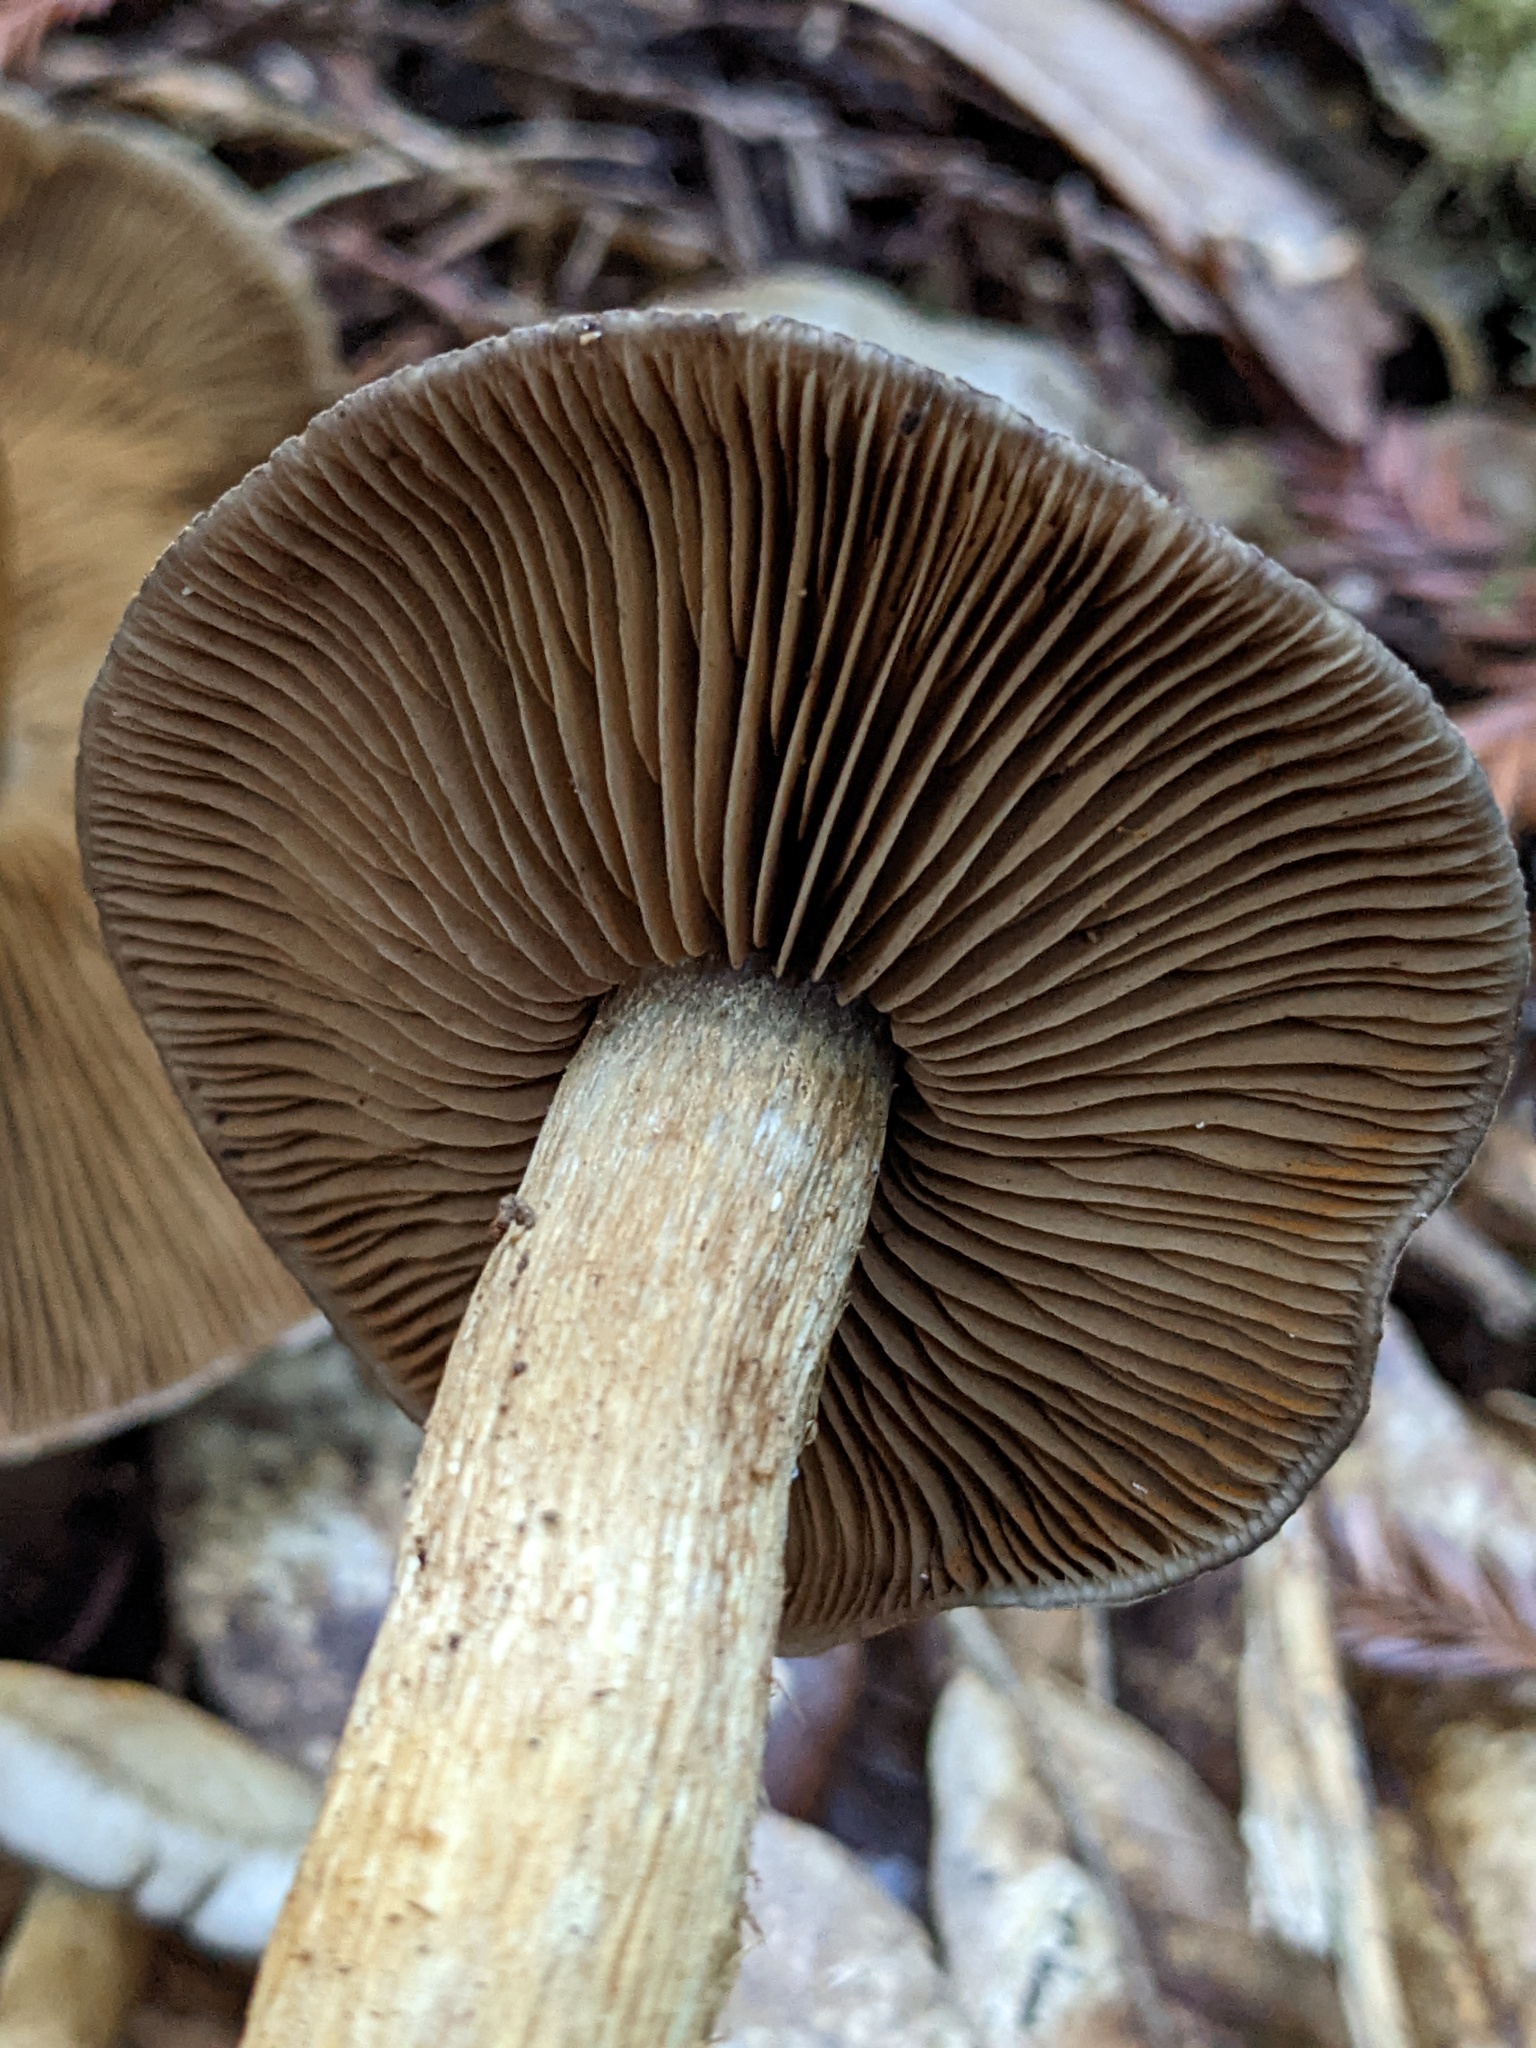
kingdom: Fungi
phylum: Basidiomycota
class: Agaricomycetes
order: Agaricales
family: Cortinariaceae
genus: Cortinarius
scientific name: Cortinarius infractus
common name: Bitter webcap
